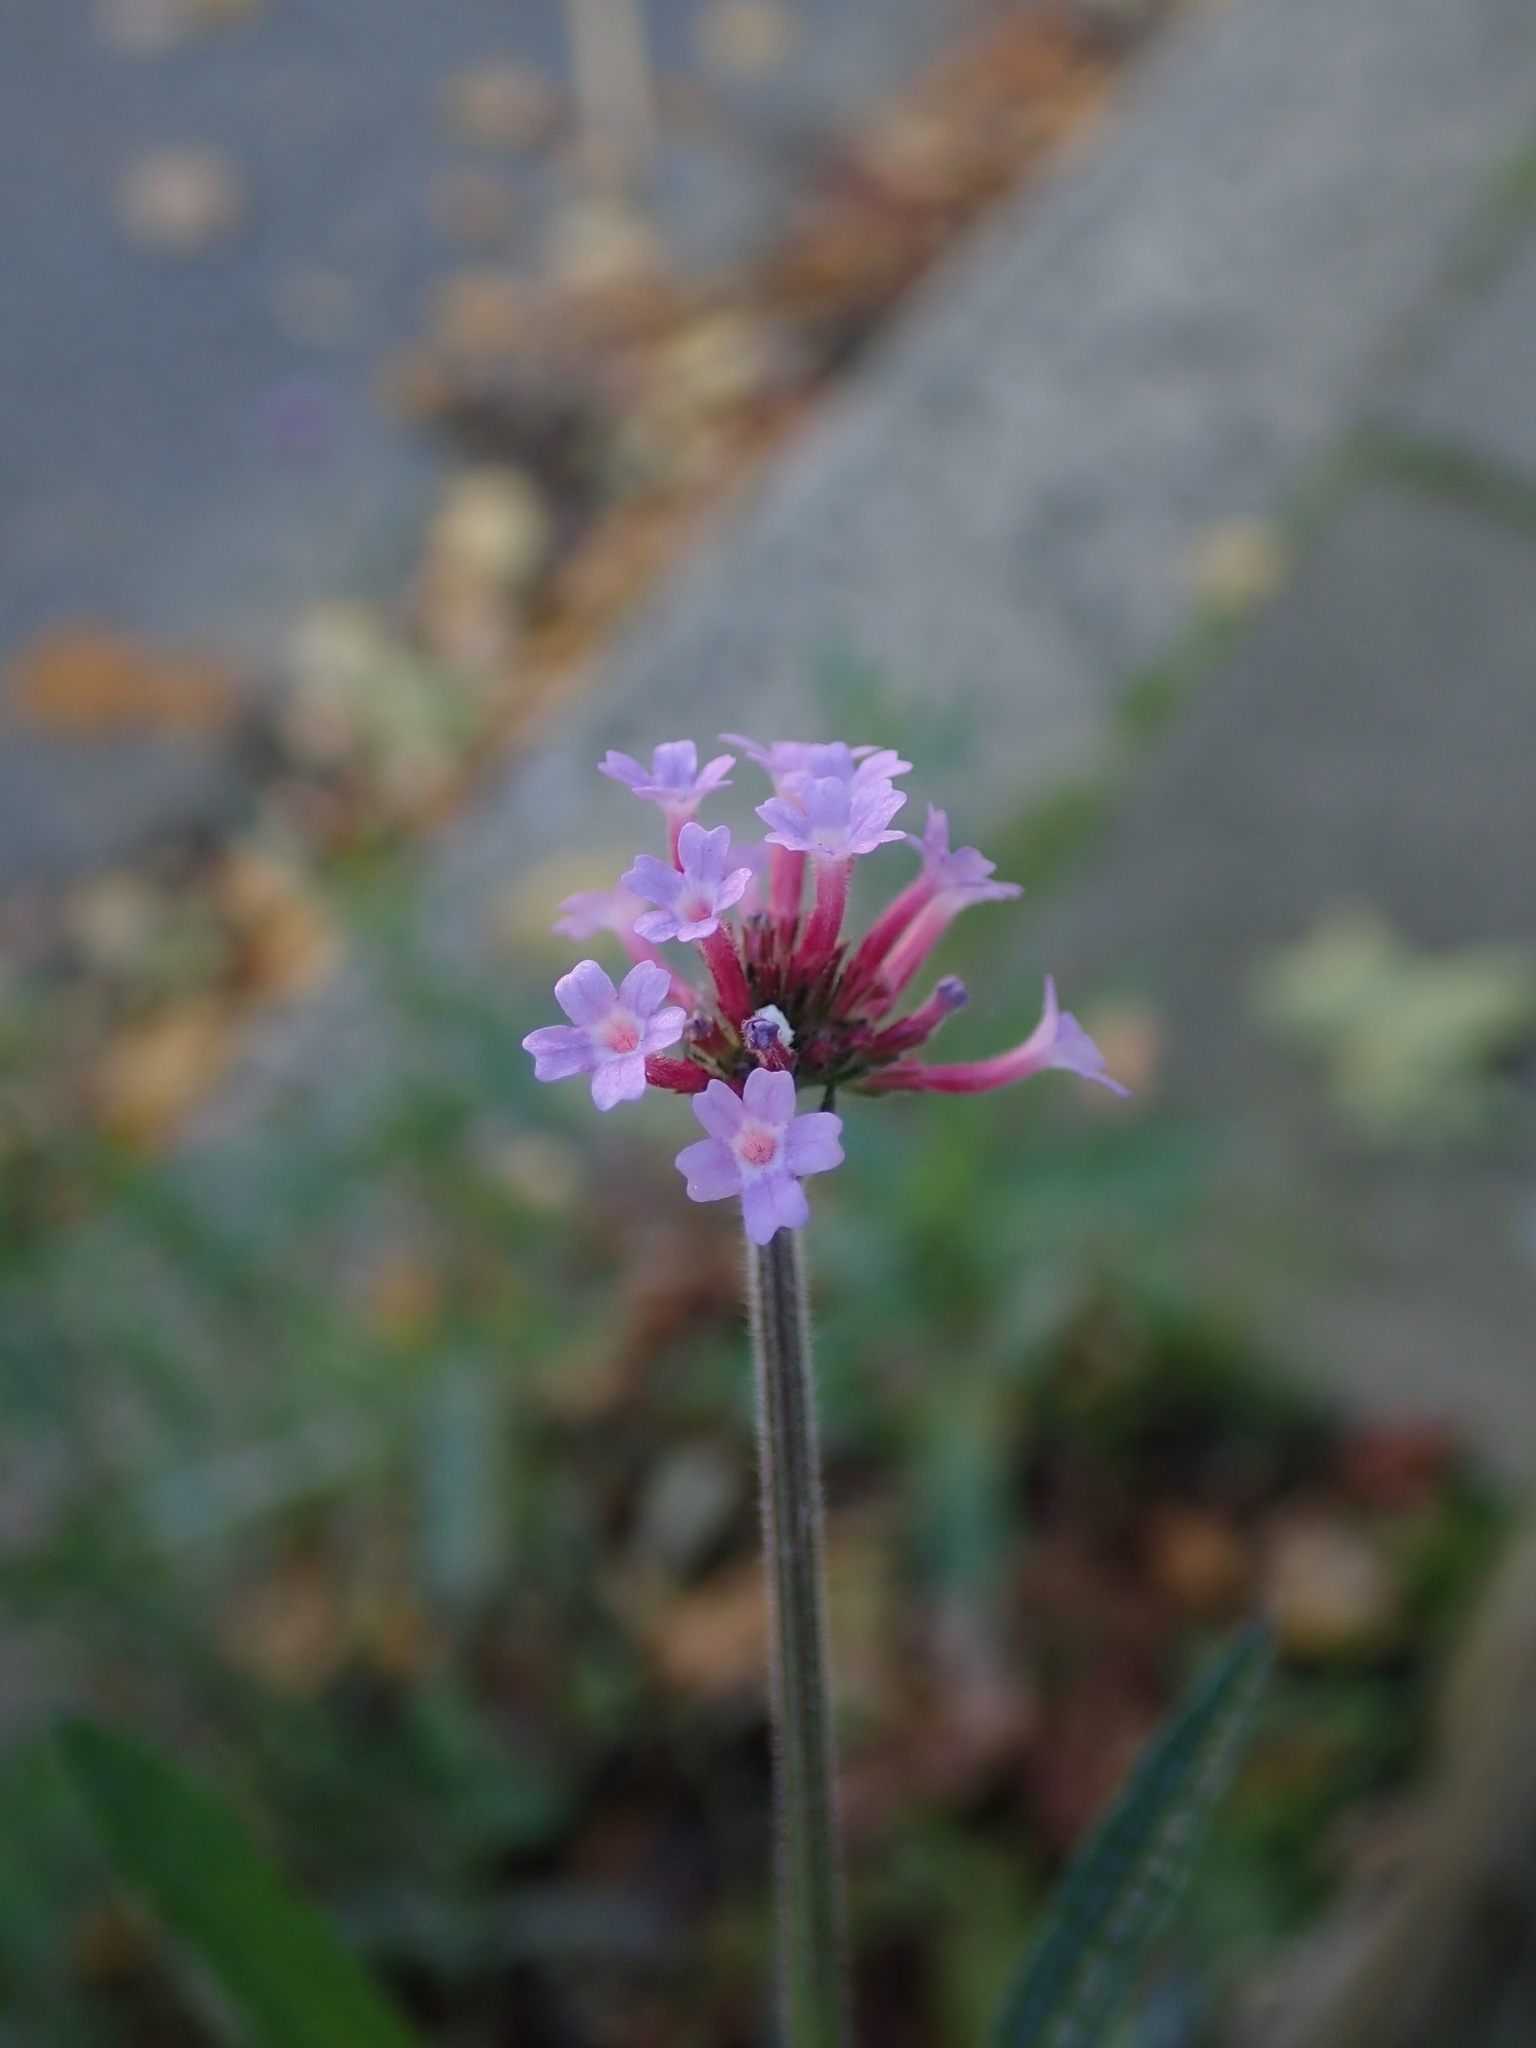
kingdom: Plantae
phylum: Tracheophyta
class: Magnoliopsida
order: Lamiales
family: Verbenaceae
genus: Verbena
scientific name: Verbena bonariensis
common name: Purpletop vervain
